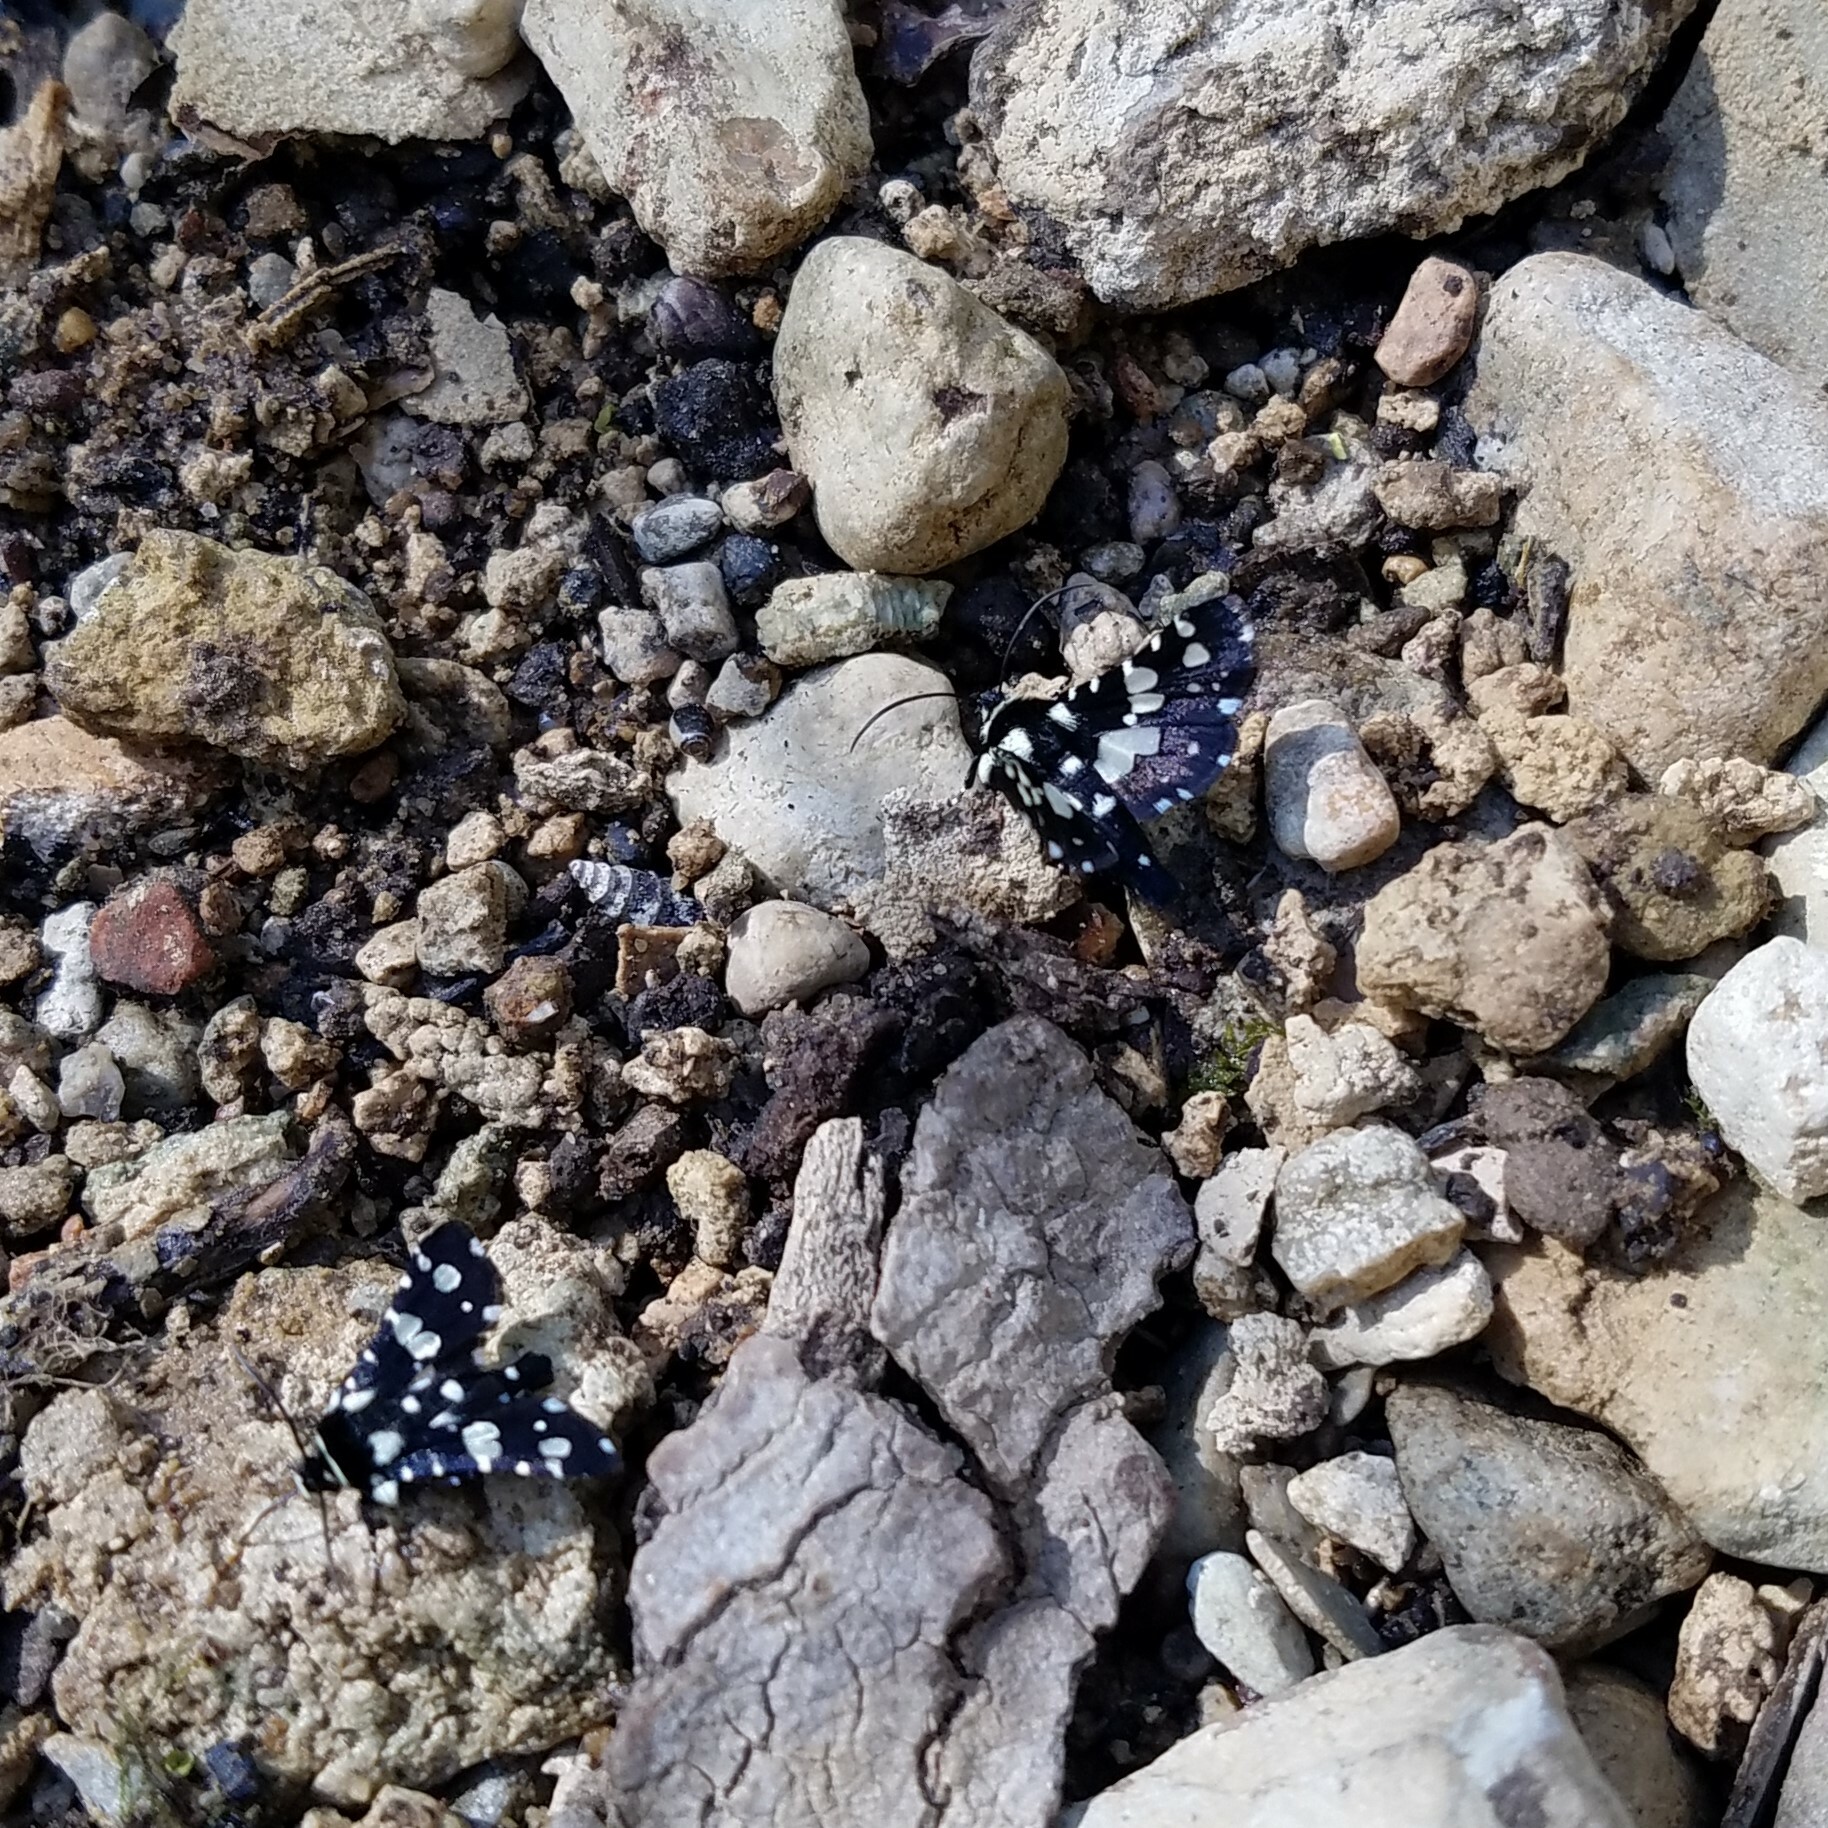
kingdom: Animalia
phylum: Arthropoda
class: Insecta
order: Lepidoptera
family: Thyrididae
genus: Pseudothyris
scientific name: Pseudothyris sepulchralis
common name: Mournful thyris moth
